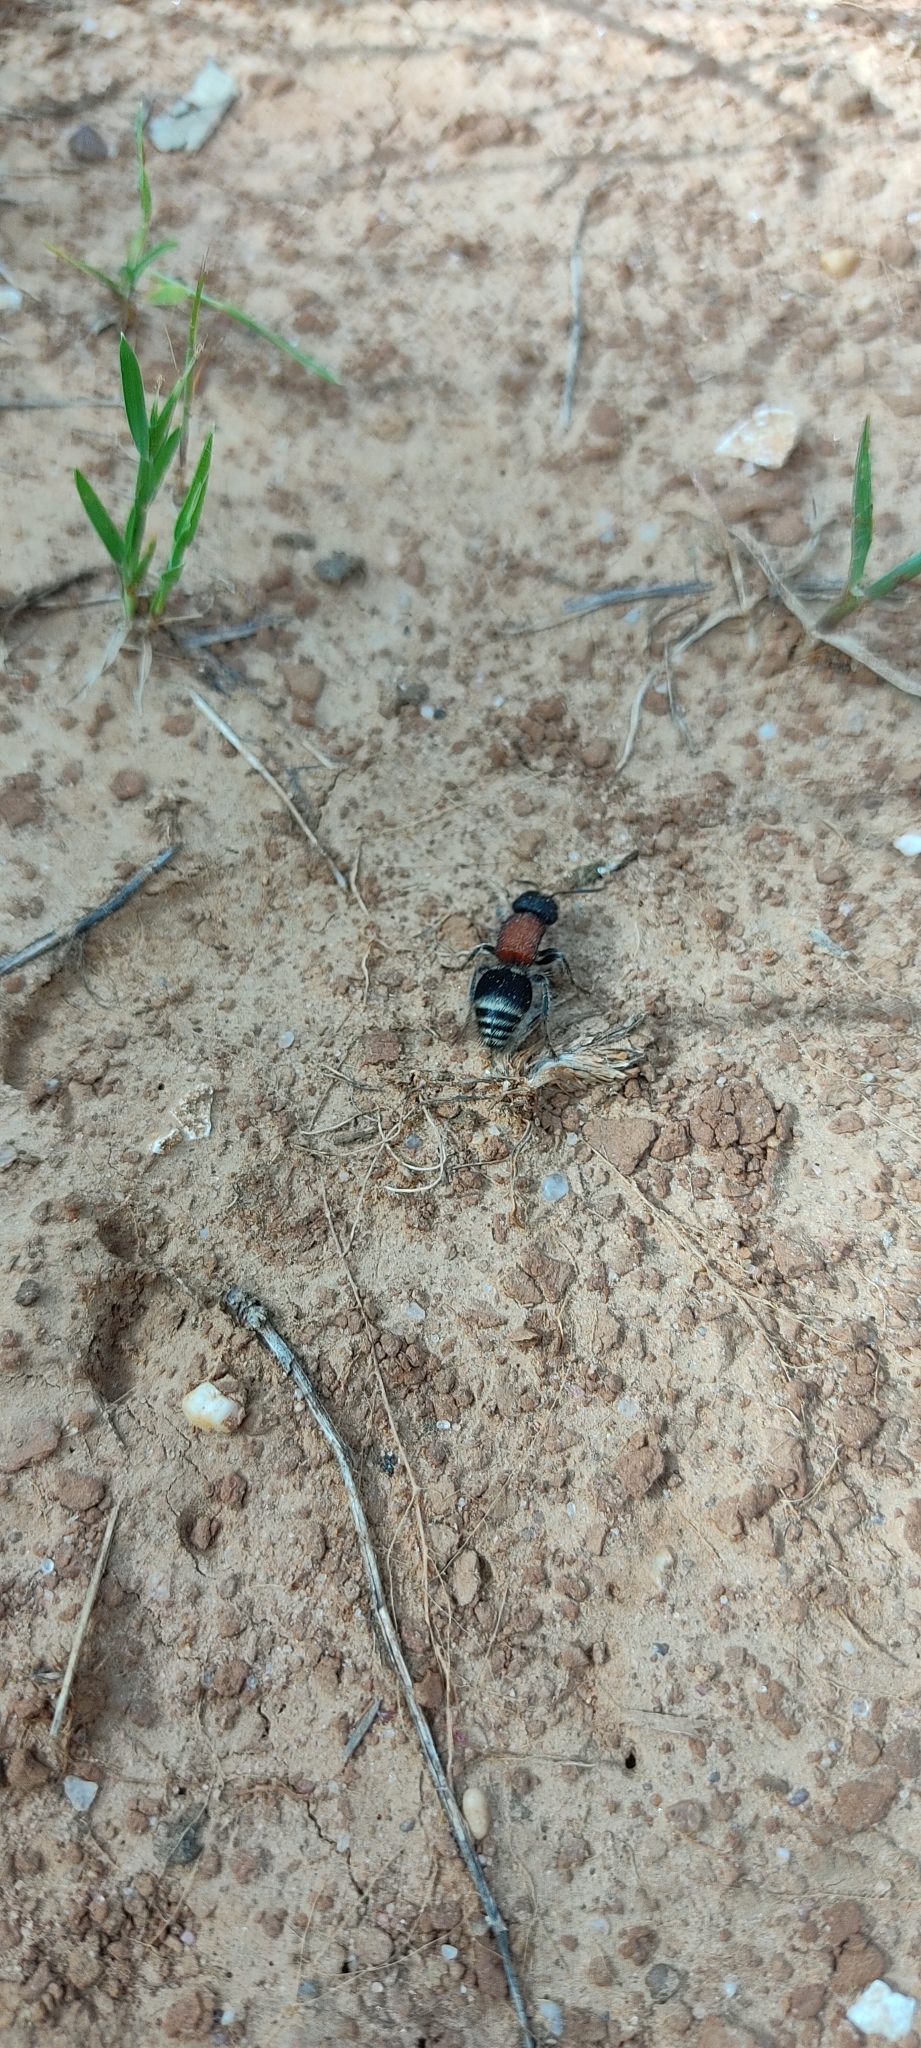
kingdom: Animalia
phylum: Arthropoda
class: Insecta
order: Hymenoptera
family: Mutillidae
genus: Tropidotilla
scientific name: Tropidotilla litoralis
